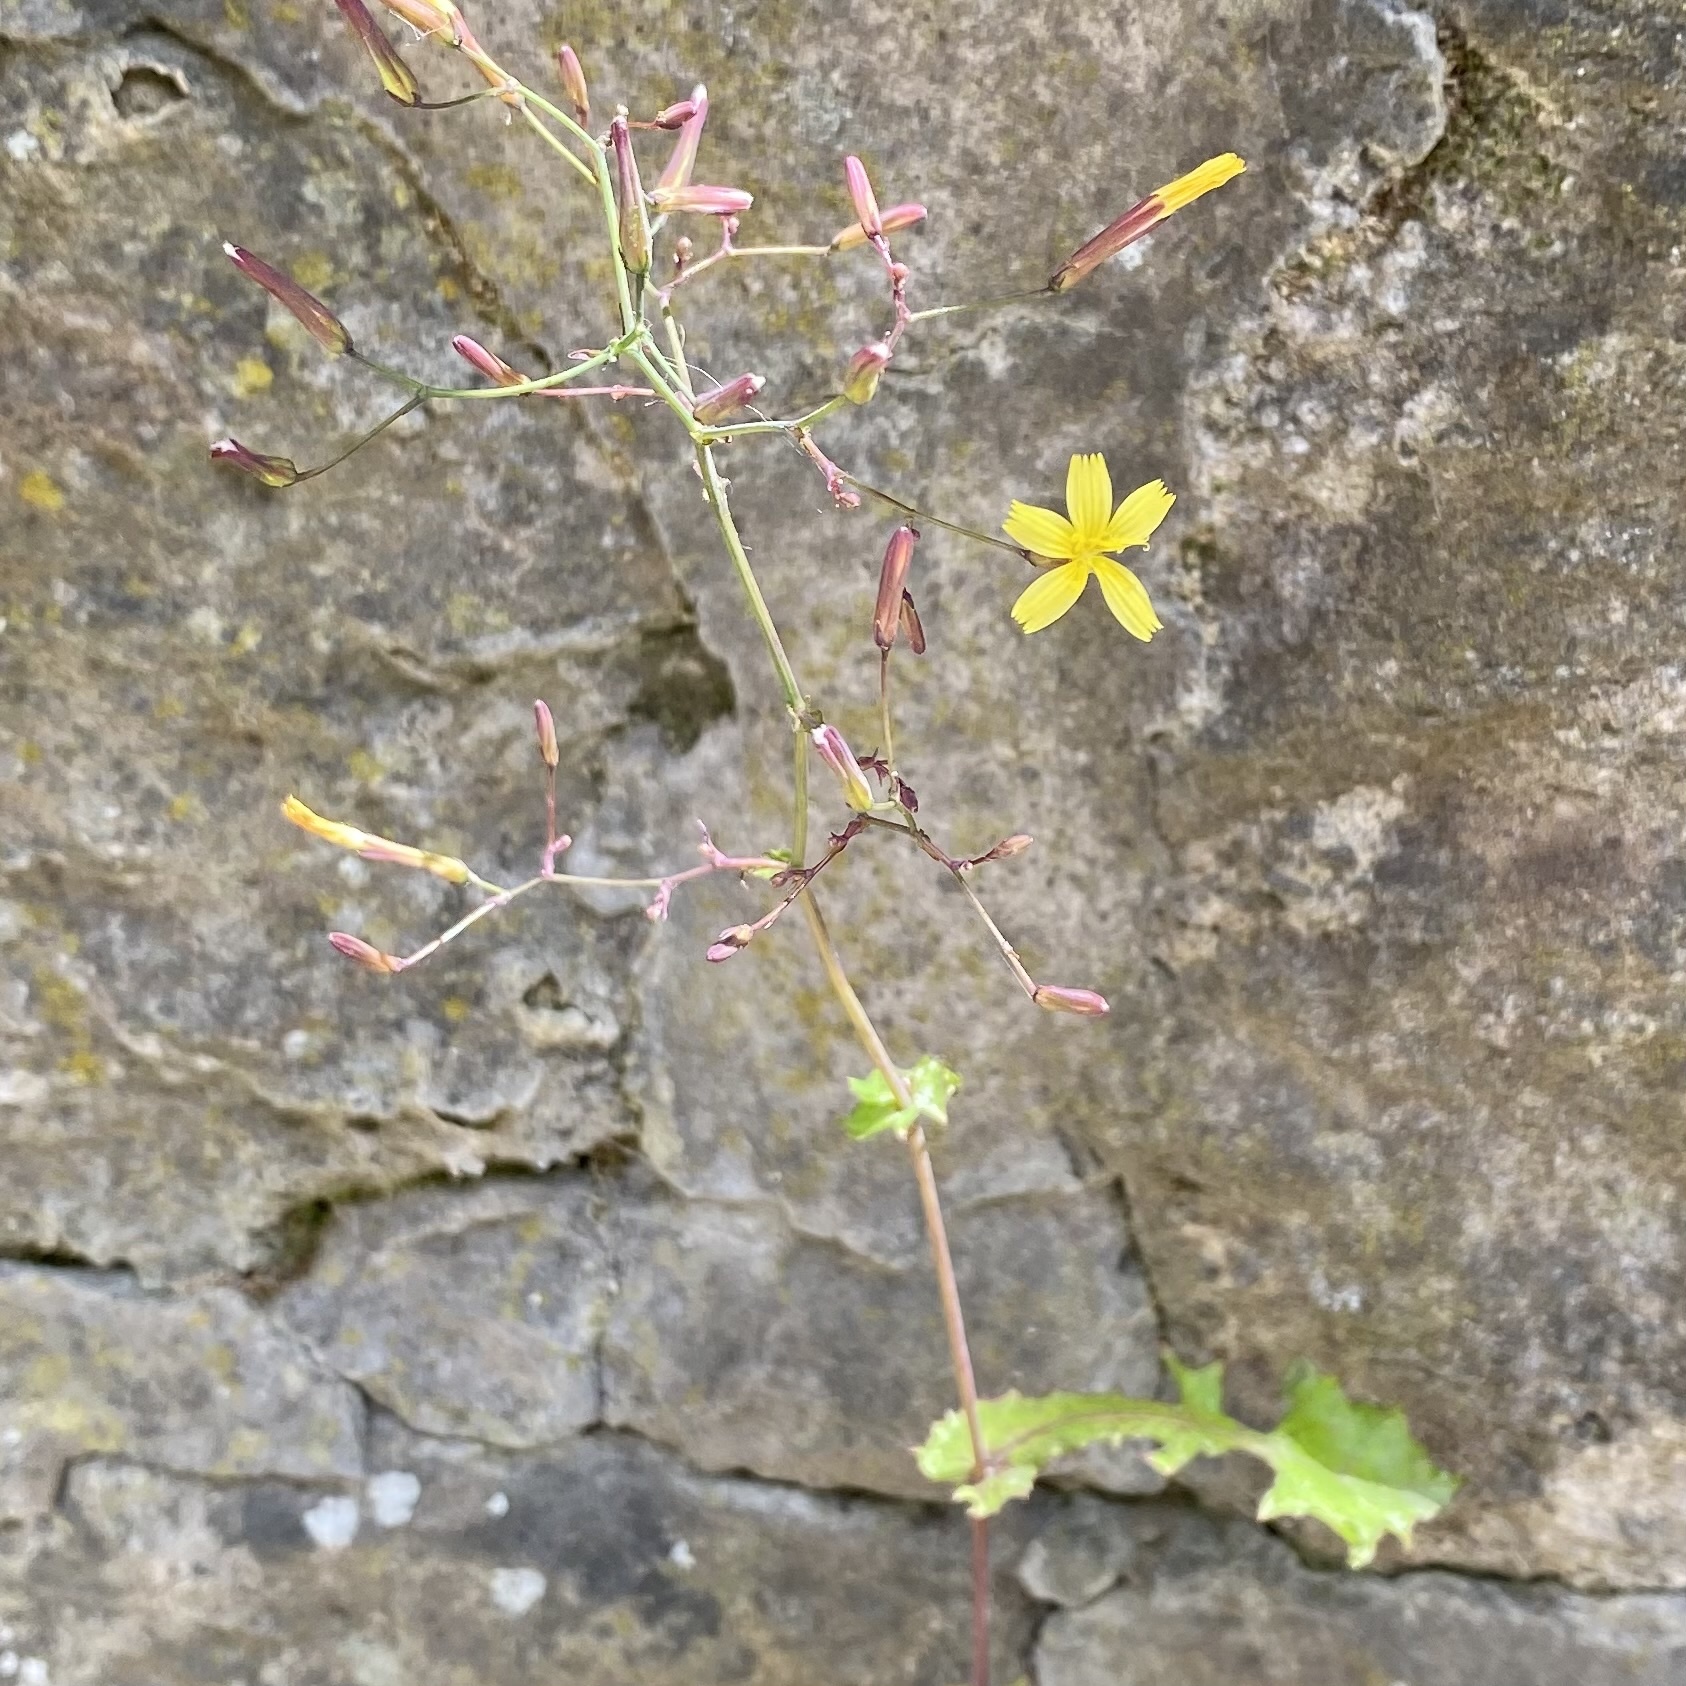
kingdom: Plantae
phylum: Tracheophyta
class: Magnoliopsida
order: Asterales
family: Asteraceae
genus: Mycelis
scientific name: Mycelis muralis
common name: Wall lettuce
